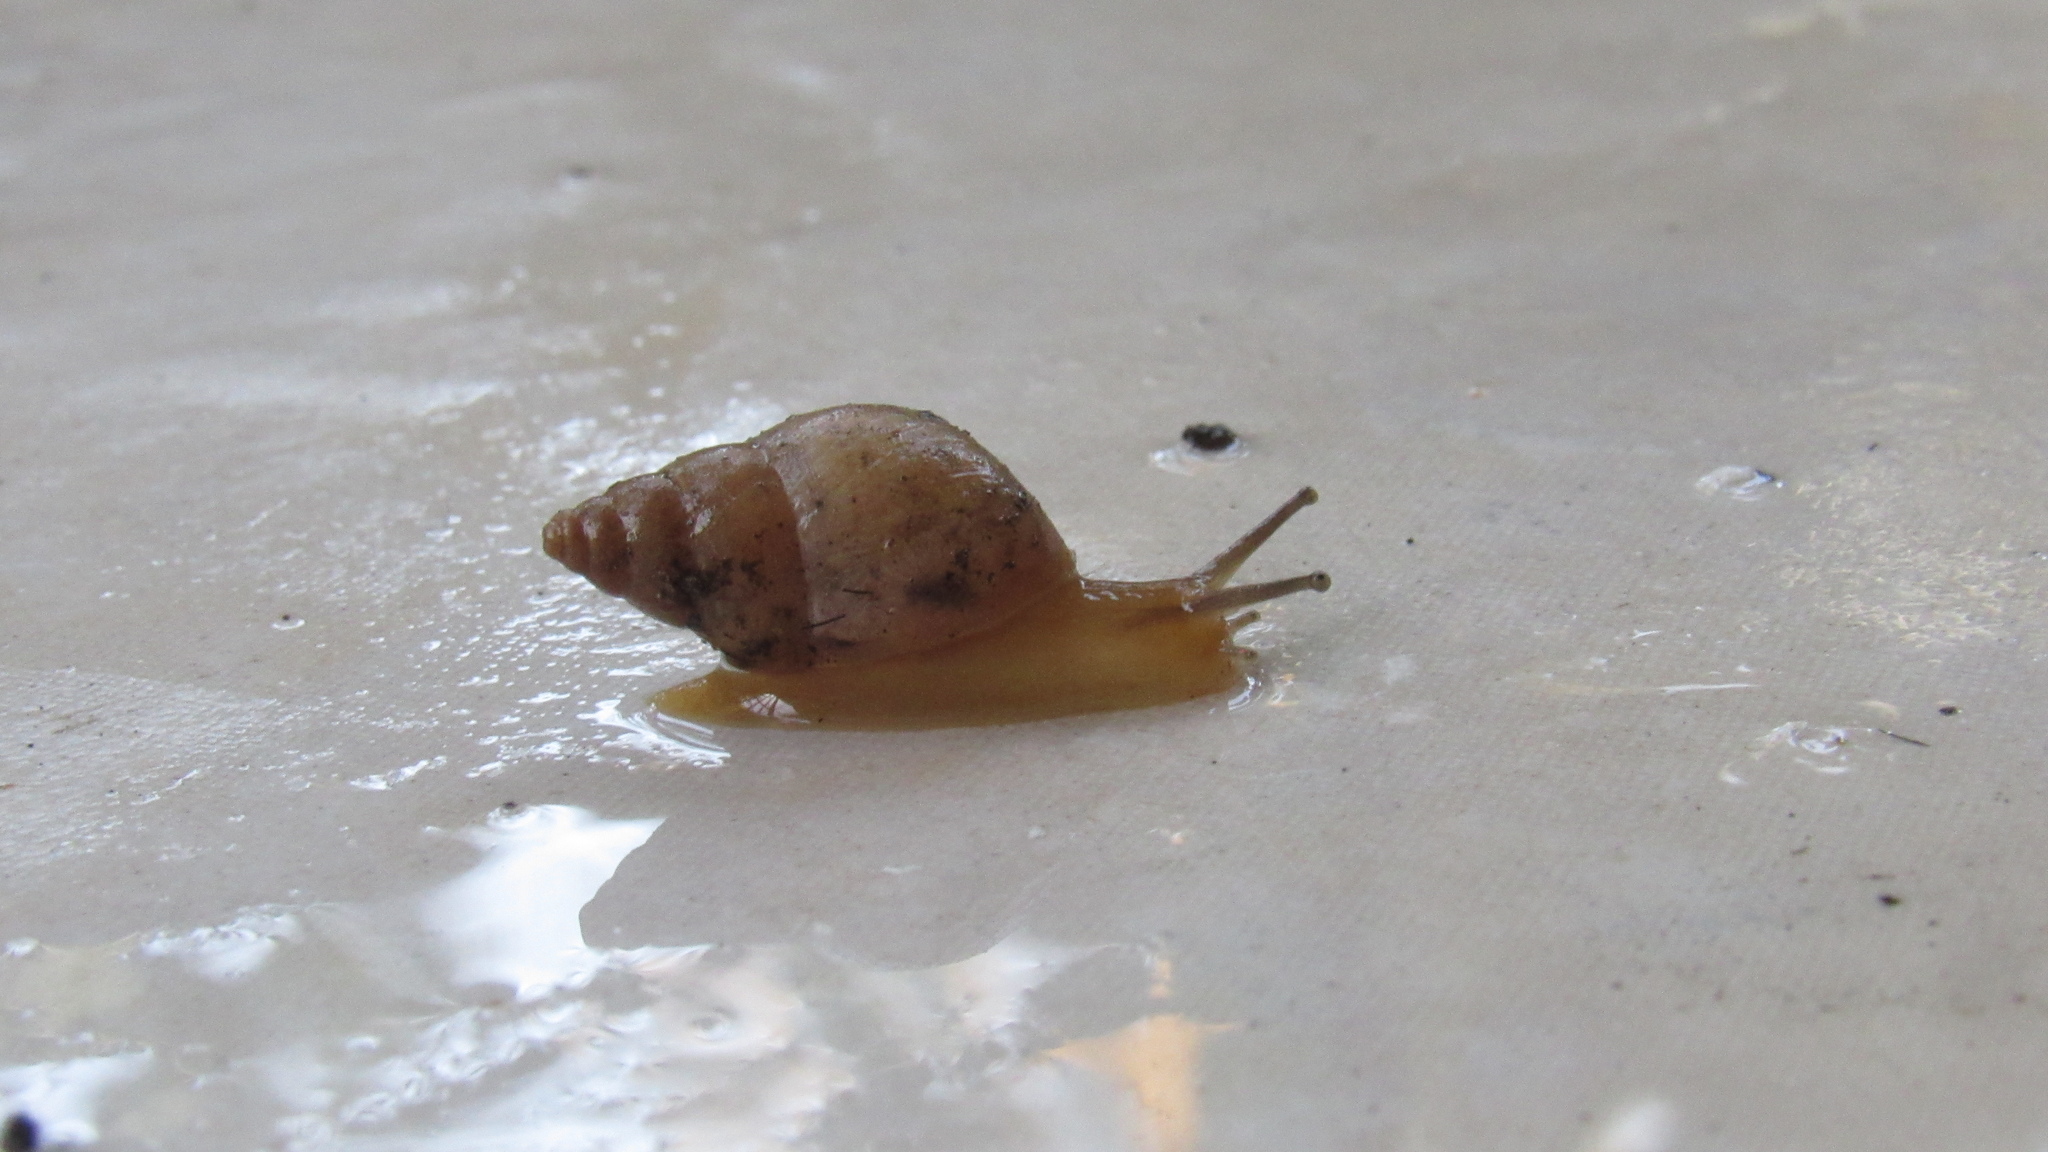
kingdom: Animalia
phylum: Mollusca
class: Gastropoda
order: Stylommatophora
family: Bulimulidae
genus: Bulimulus
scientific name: Bulimulus tenuissimus
